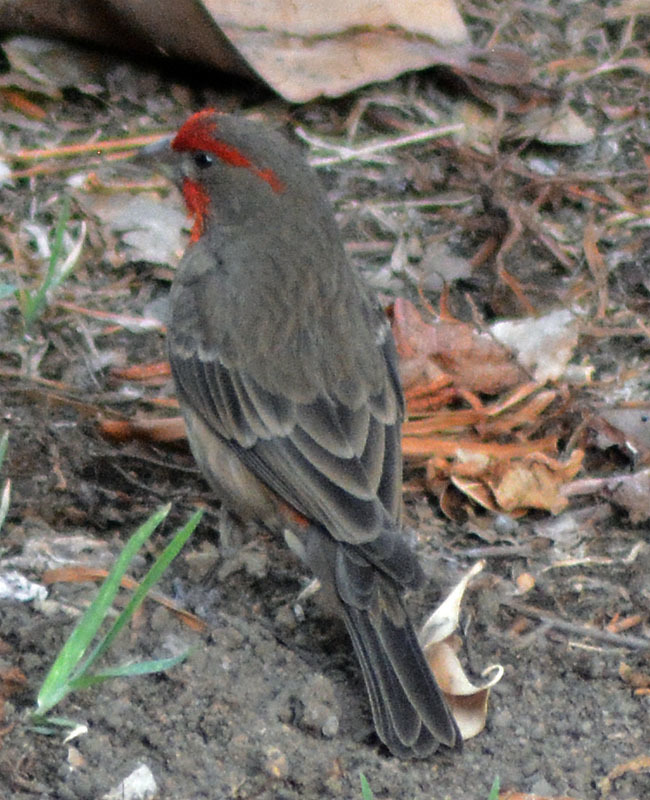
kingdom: Animalia
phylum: Chordata
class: Aves
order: Passeriformes
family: Fringillidae
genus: Haemorhous
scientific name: Haemorhous mexicanus
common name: House finch
